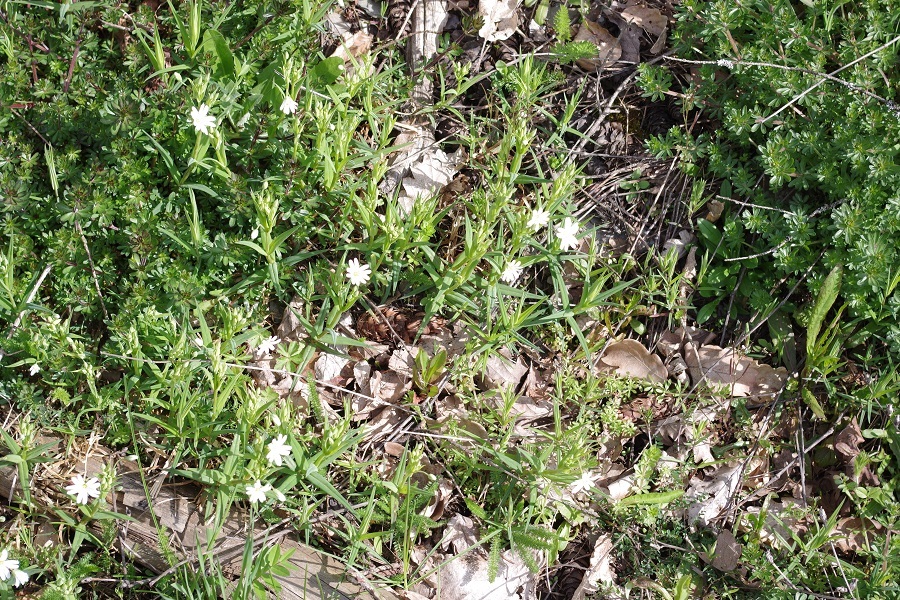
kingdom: Plantae
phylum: Tracheophyta
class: Magnoliopsida
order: Caryophyllales
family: Caryophyllaceae
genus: Rabelera
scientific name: Rabelera holostea
